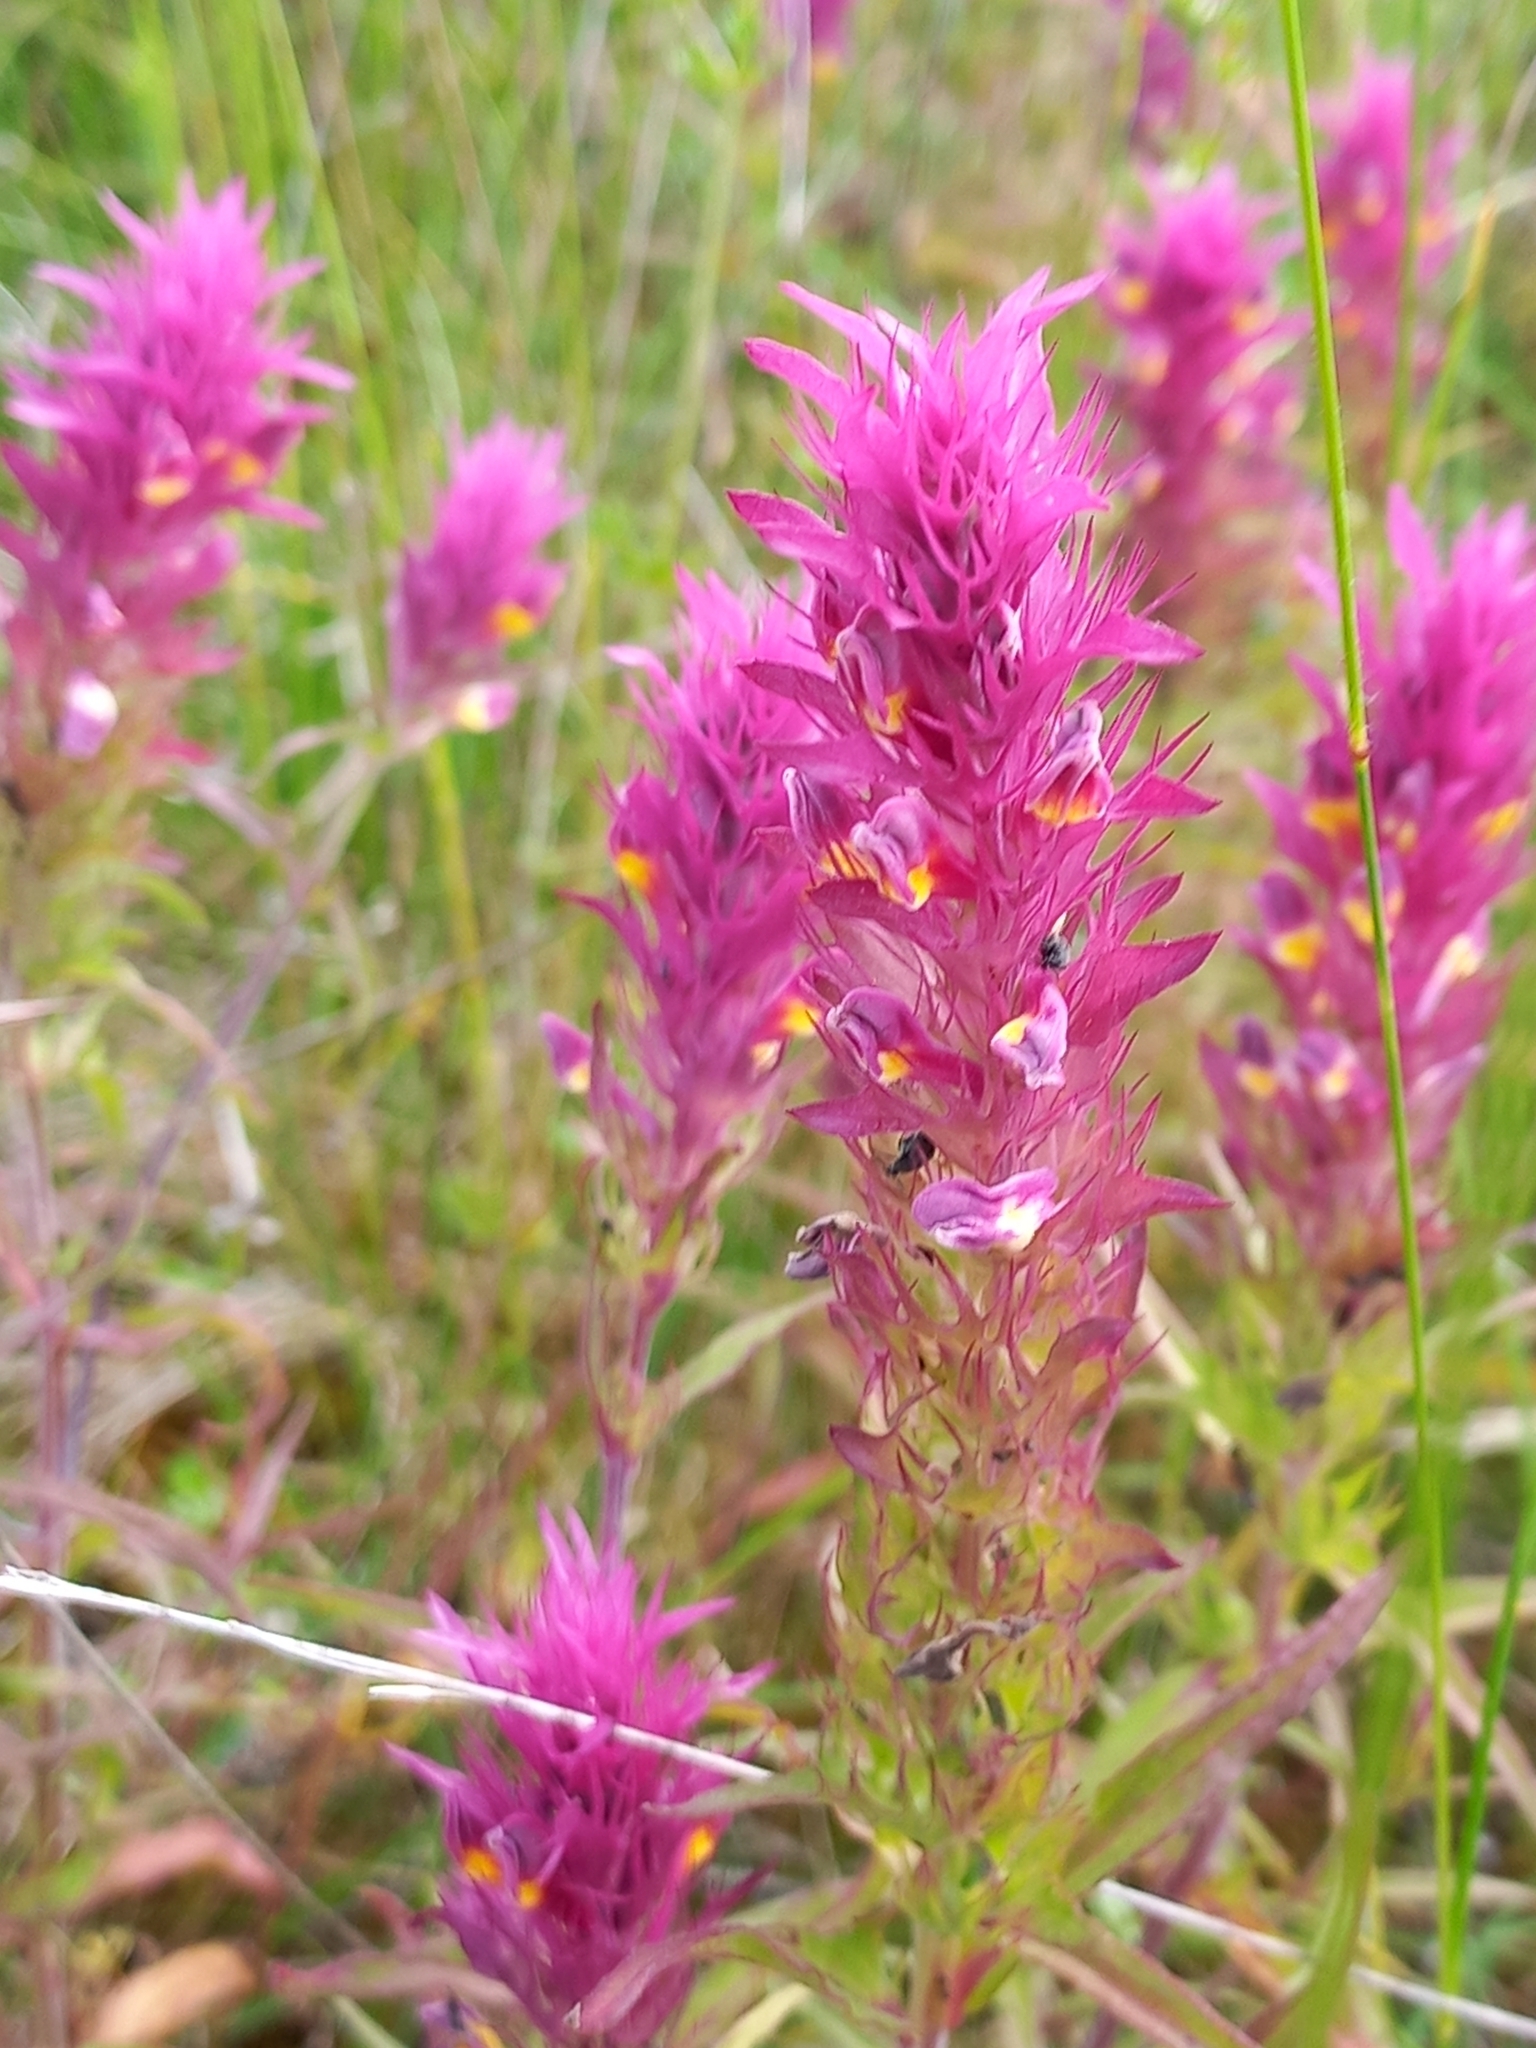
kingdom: Plantae
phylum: Tracheophyta
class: Magnoliopsida
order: Lamiales
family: Orobanchaceae
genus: Melampyrum
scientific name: Melampyrum arvense
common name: Field cow-wheat
